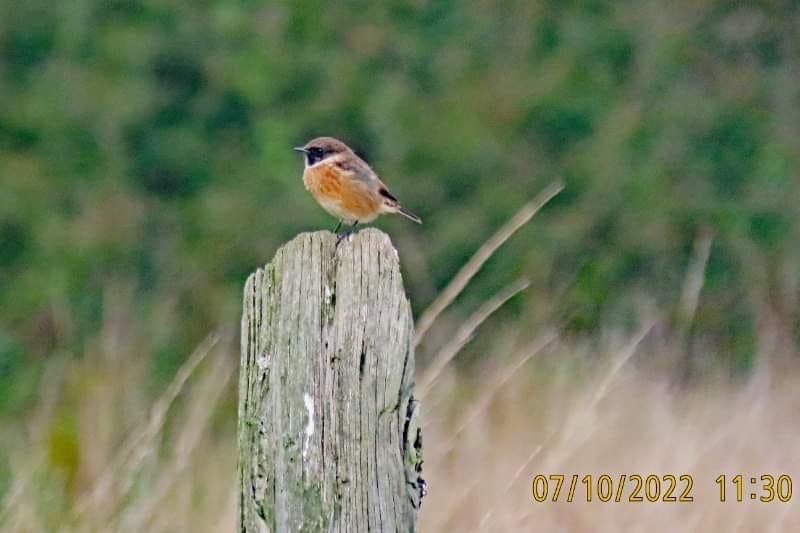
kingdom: Animalia
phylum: Chordata
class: Aves
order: Passeriformes
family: Muscicapidae
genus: Saxicola
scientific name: Saxicola rubicola
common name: European stonechat
